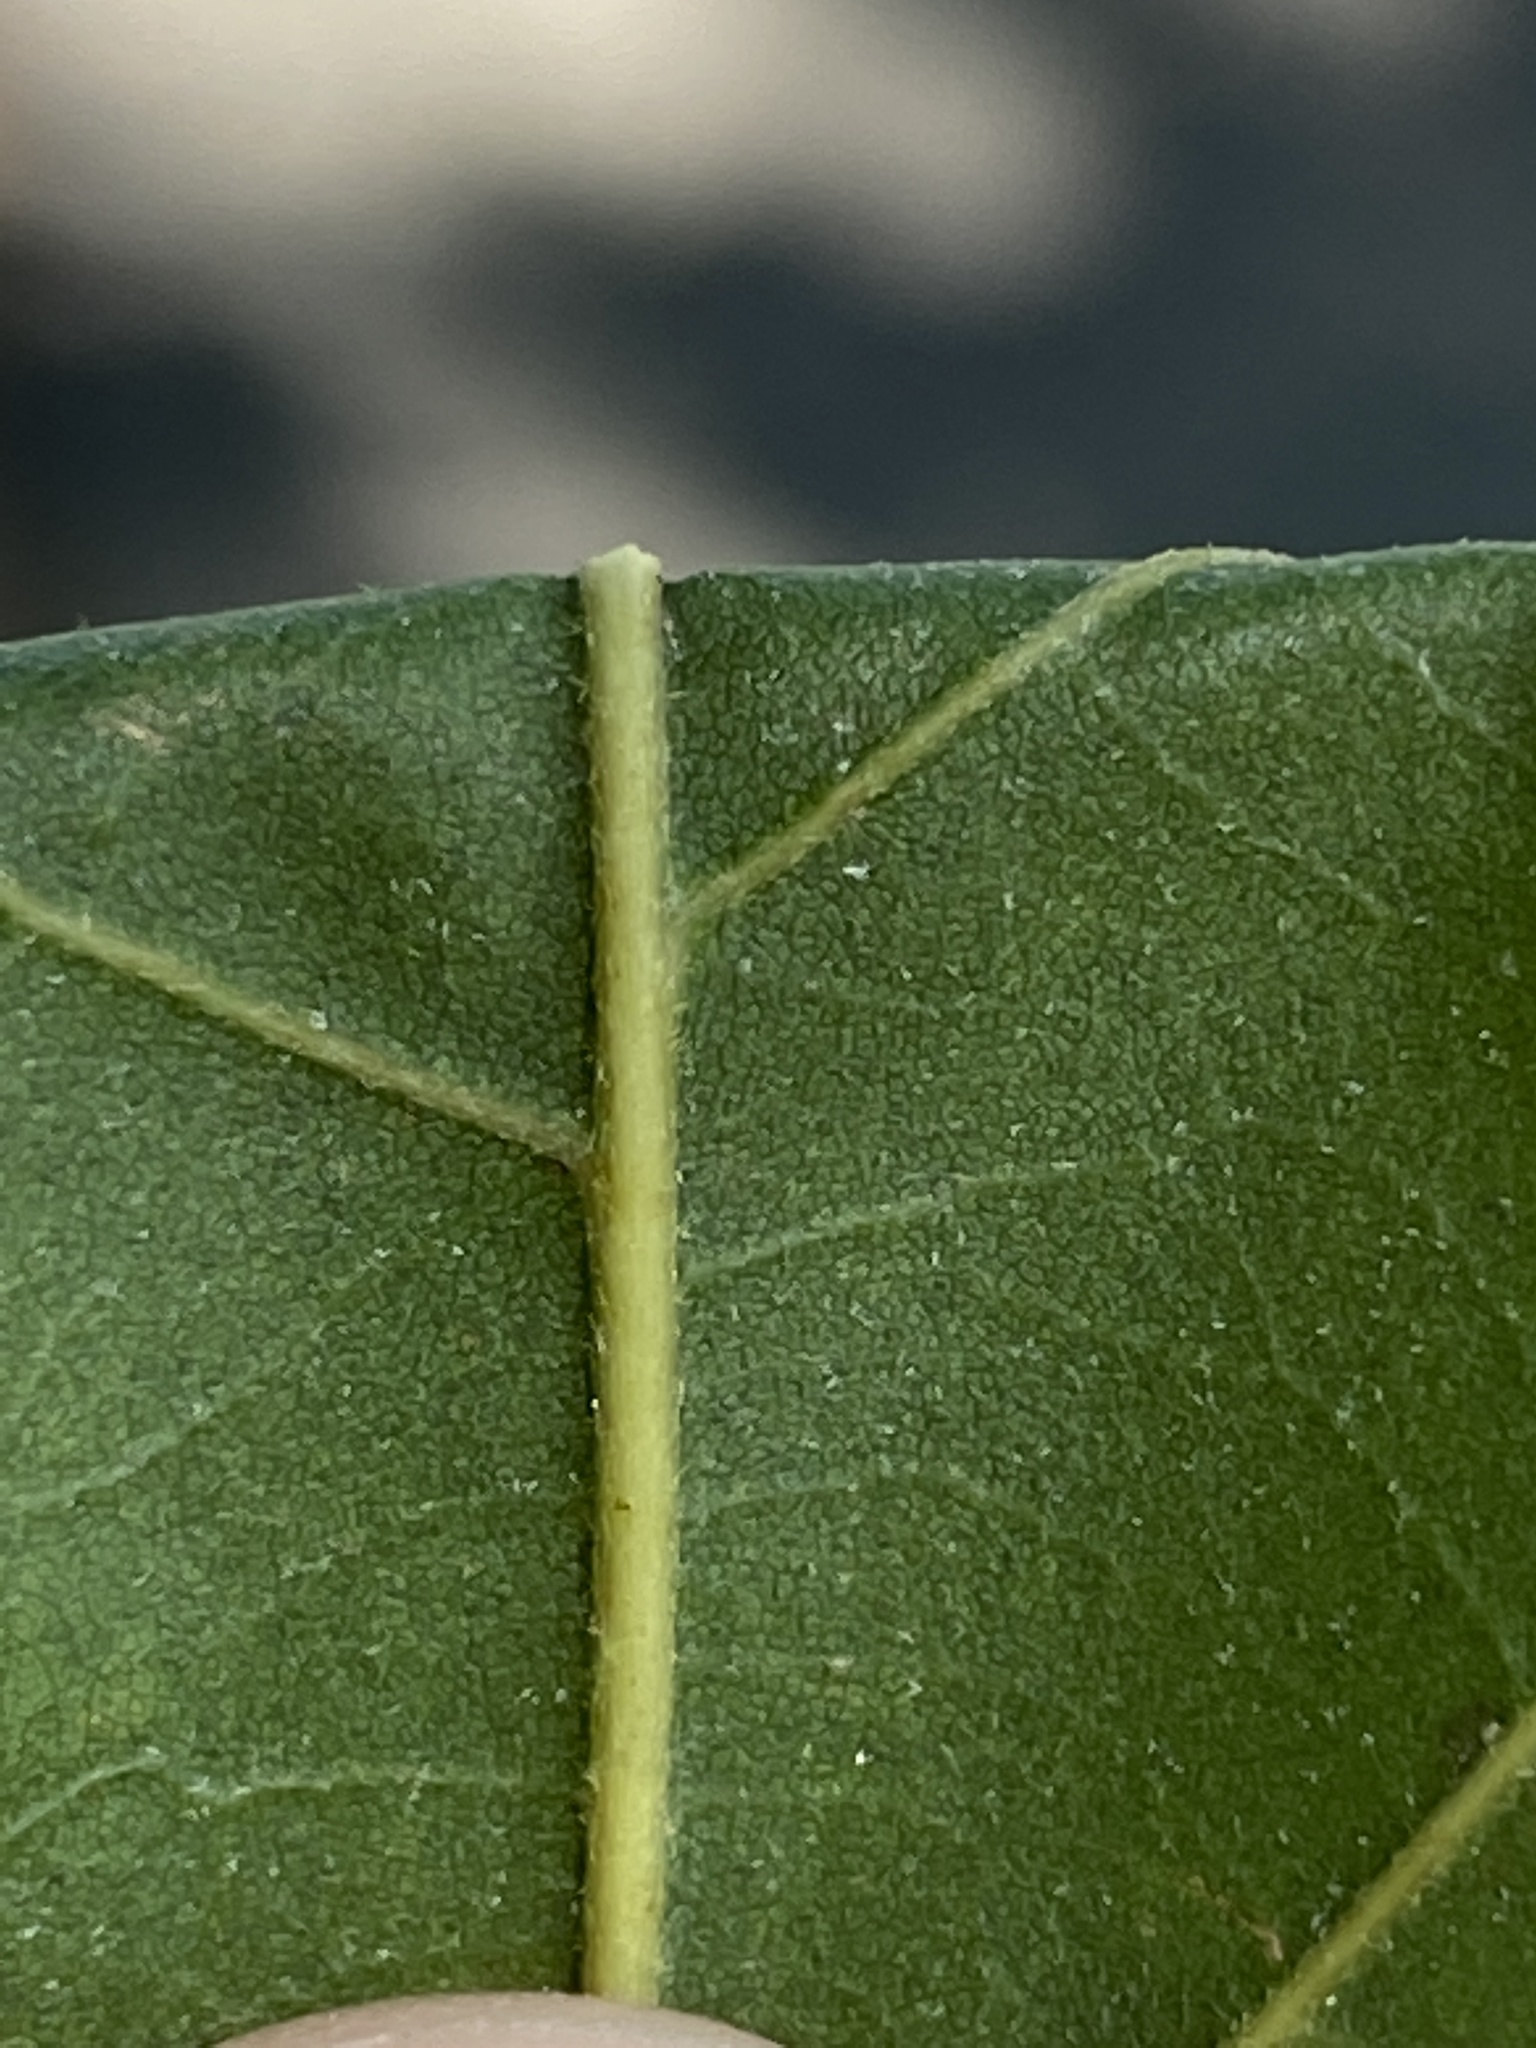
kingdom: Plantae
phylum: Tracheophyta
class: Magnoliopsida
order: Fagales
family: Fagaceae
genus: Quercus
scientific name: Quercus lyrata
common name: Overcup oak
